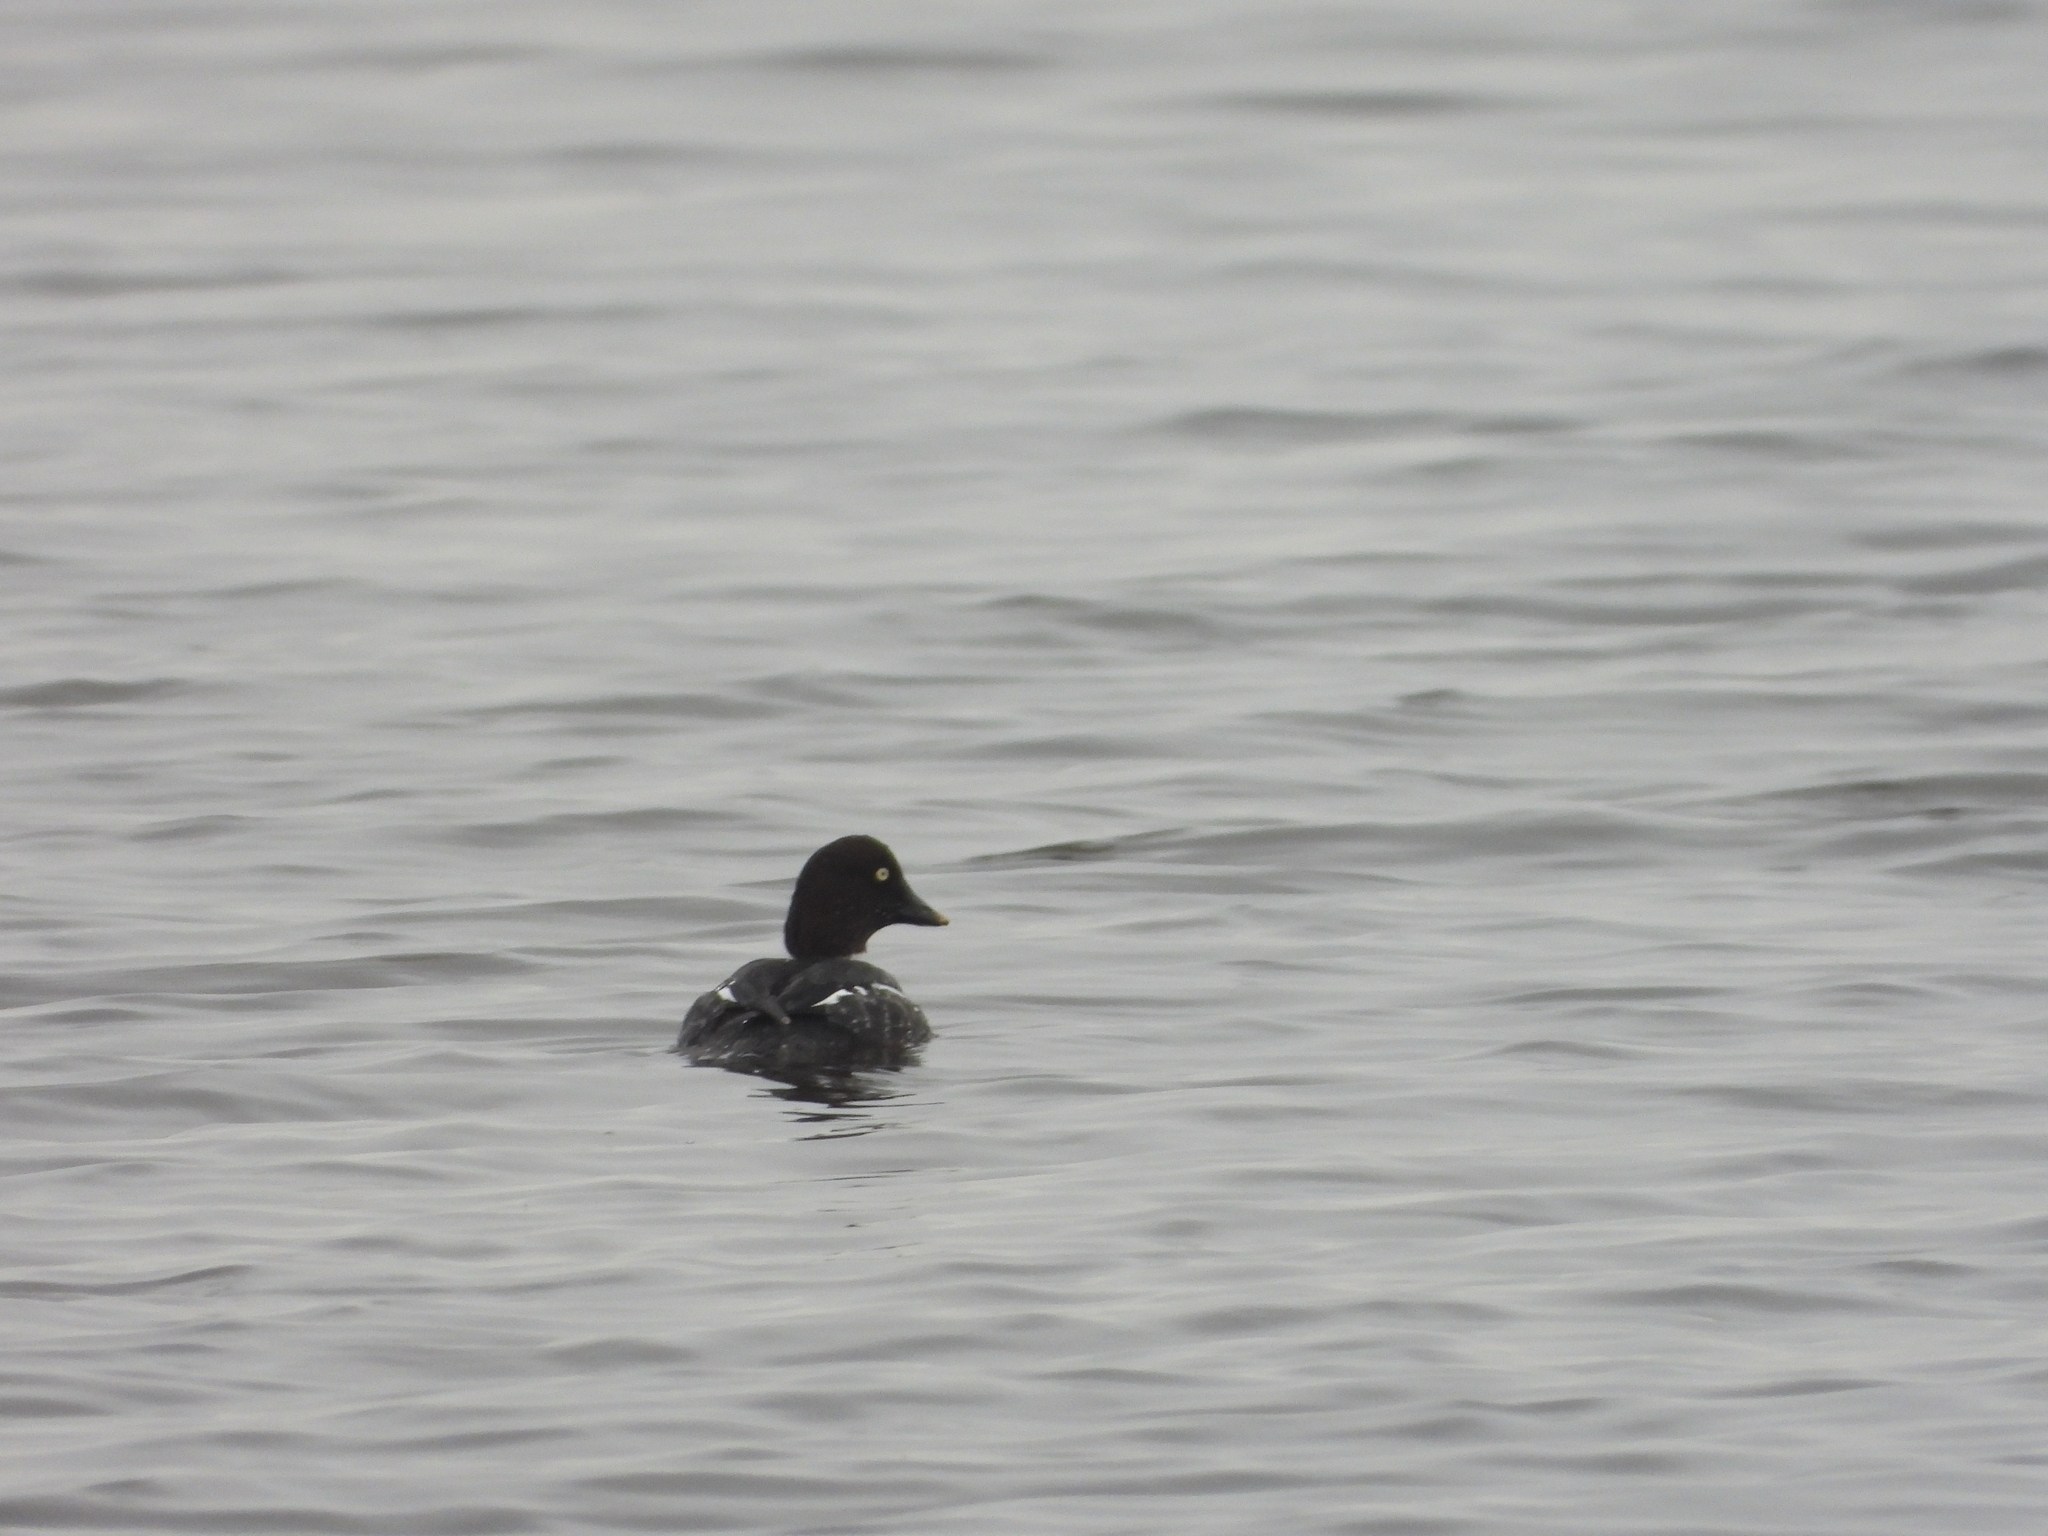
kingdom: Animalia
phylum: Chordata
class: Aves
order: Anseriformes
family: Anatidae
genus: Bucephala
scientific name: Bucephala clangula
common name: Common goldeneye
